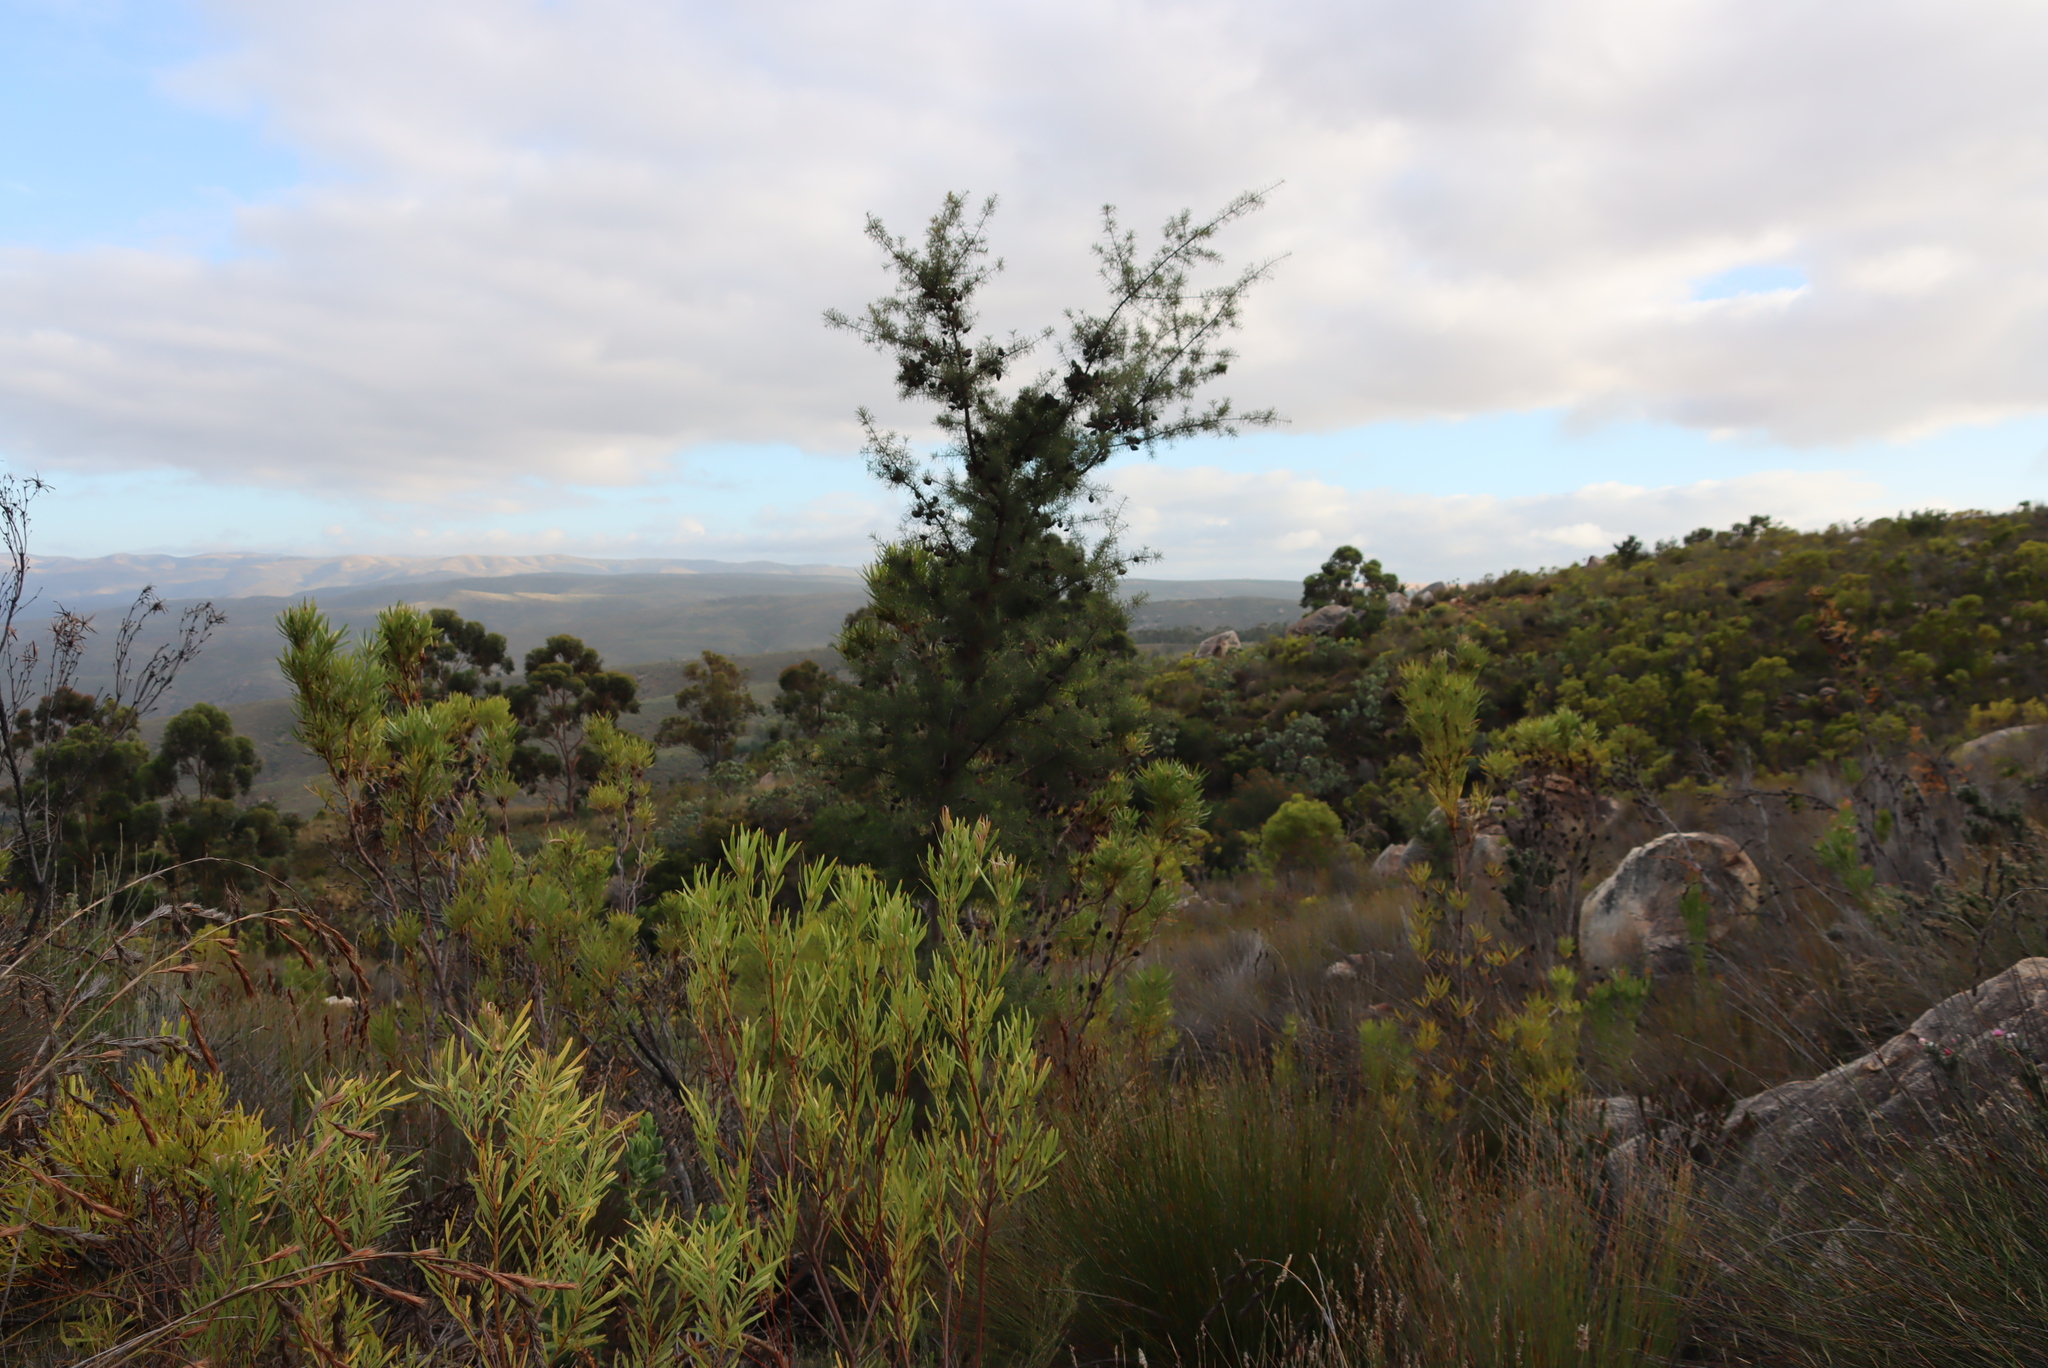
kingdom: Plantae
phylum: Tracheophyta
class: Magnoliopsida
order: Proteales
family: Proteaceae
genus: Hakea
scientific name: Hakea sericea
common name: Needle bush
